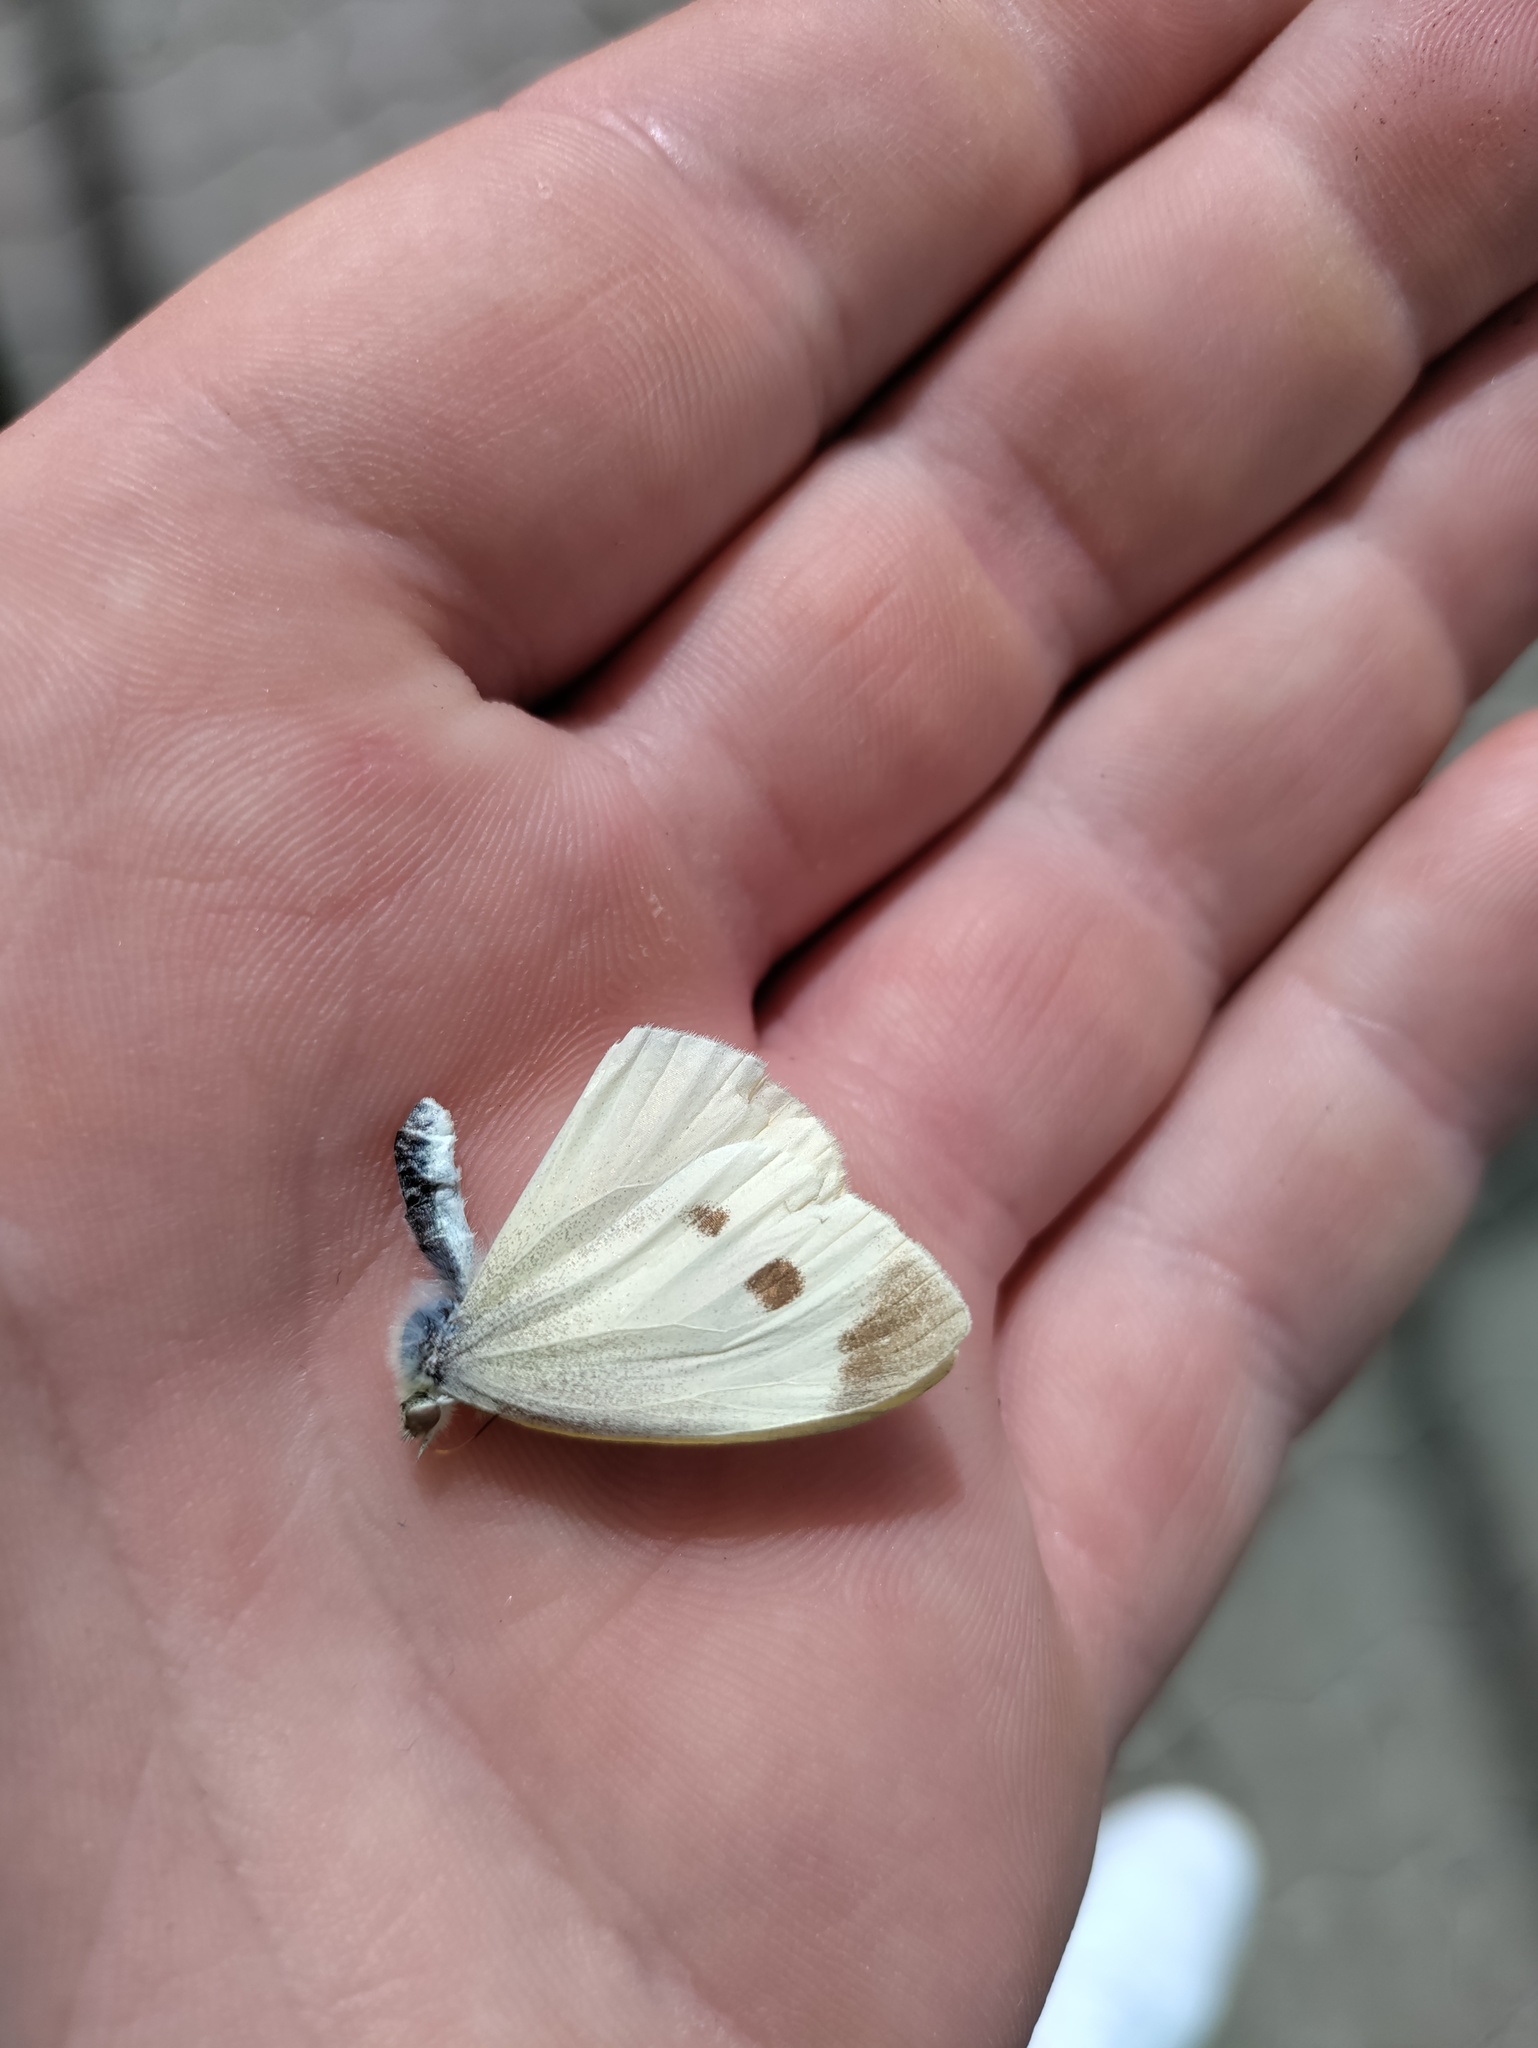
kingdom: Animalia
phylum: Arthropoda
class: Insecta
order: Lepidoptera
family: Pieridae
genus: Pieris
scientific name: Pieris rapae
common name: Small white
